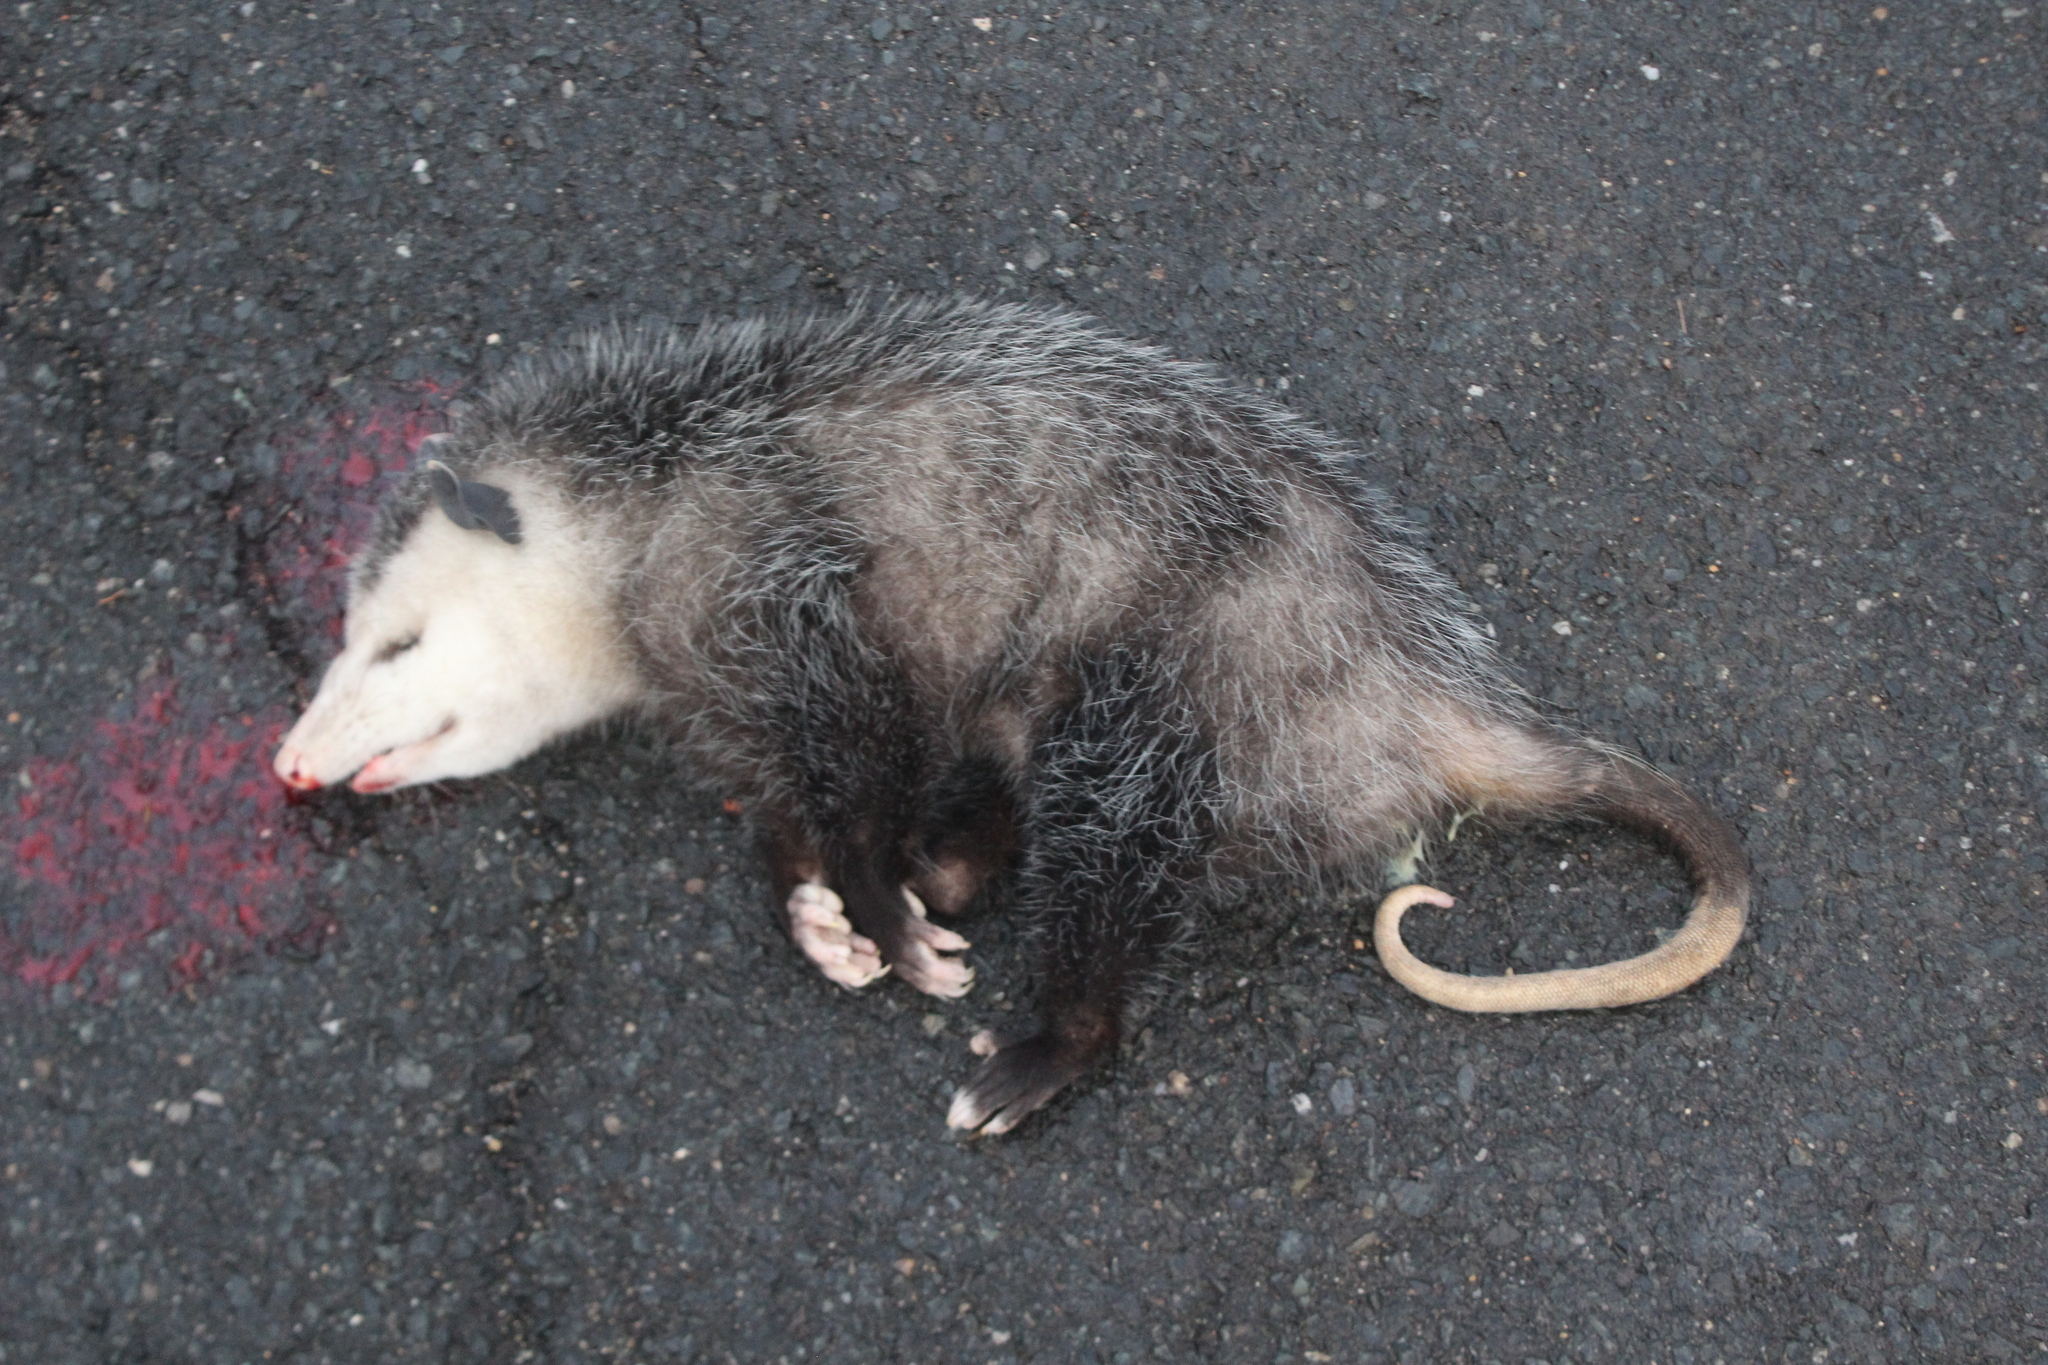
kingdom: Animalia
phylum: Chordata
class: Mammalia
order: Didelphimorphia
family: Didelphidae
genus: Didelphis
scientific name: Didelphis virginiana
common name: Virginia opossum
